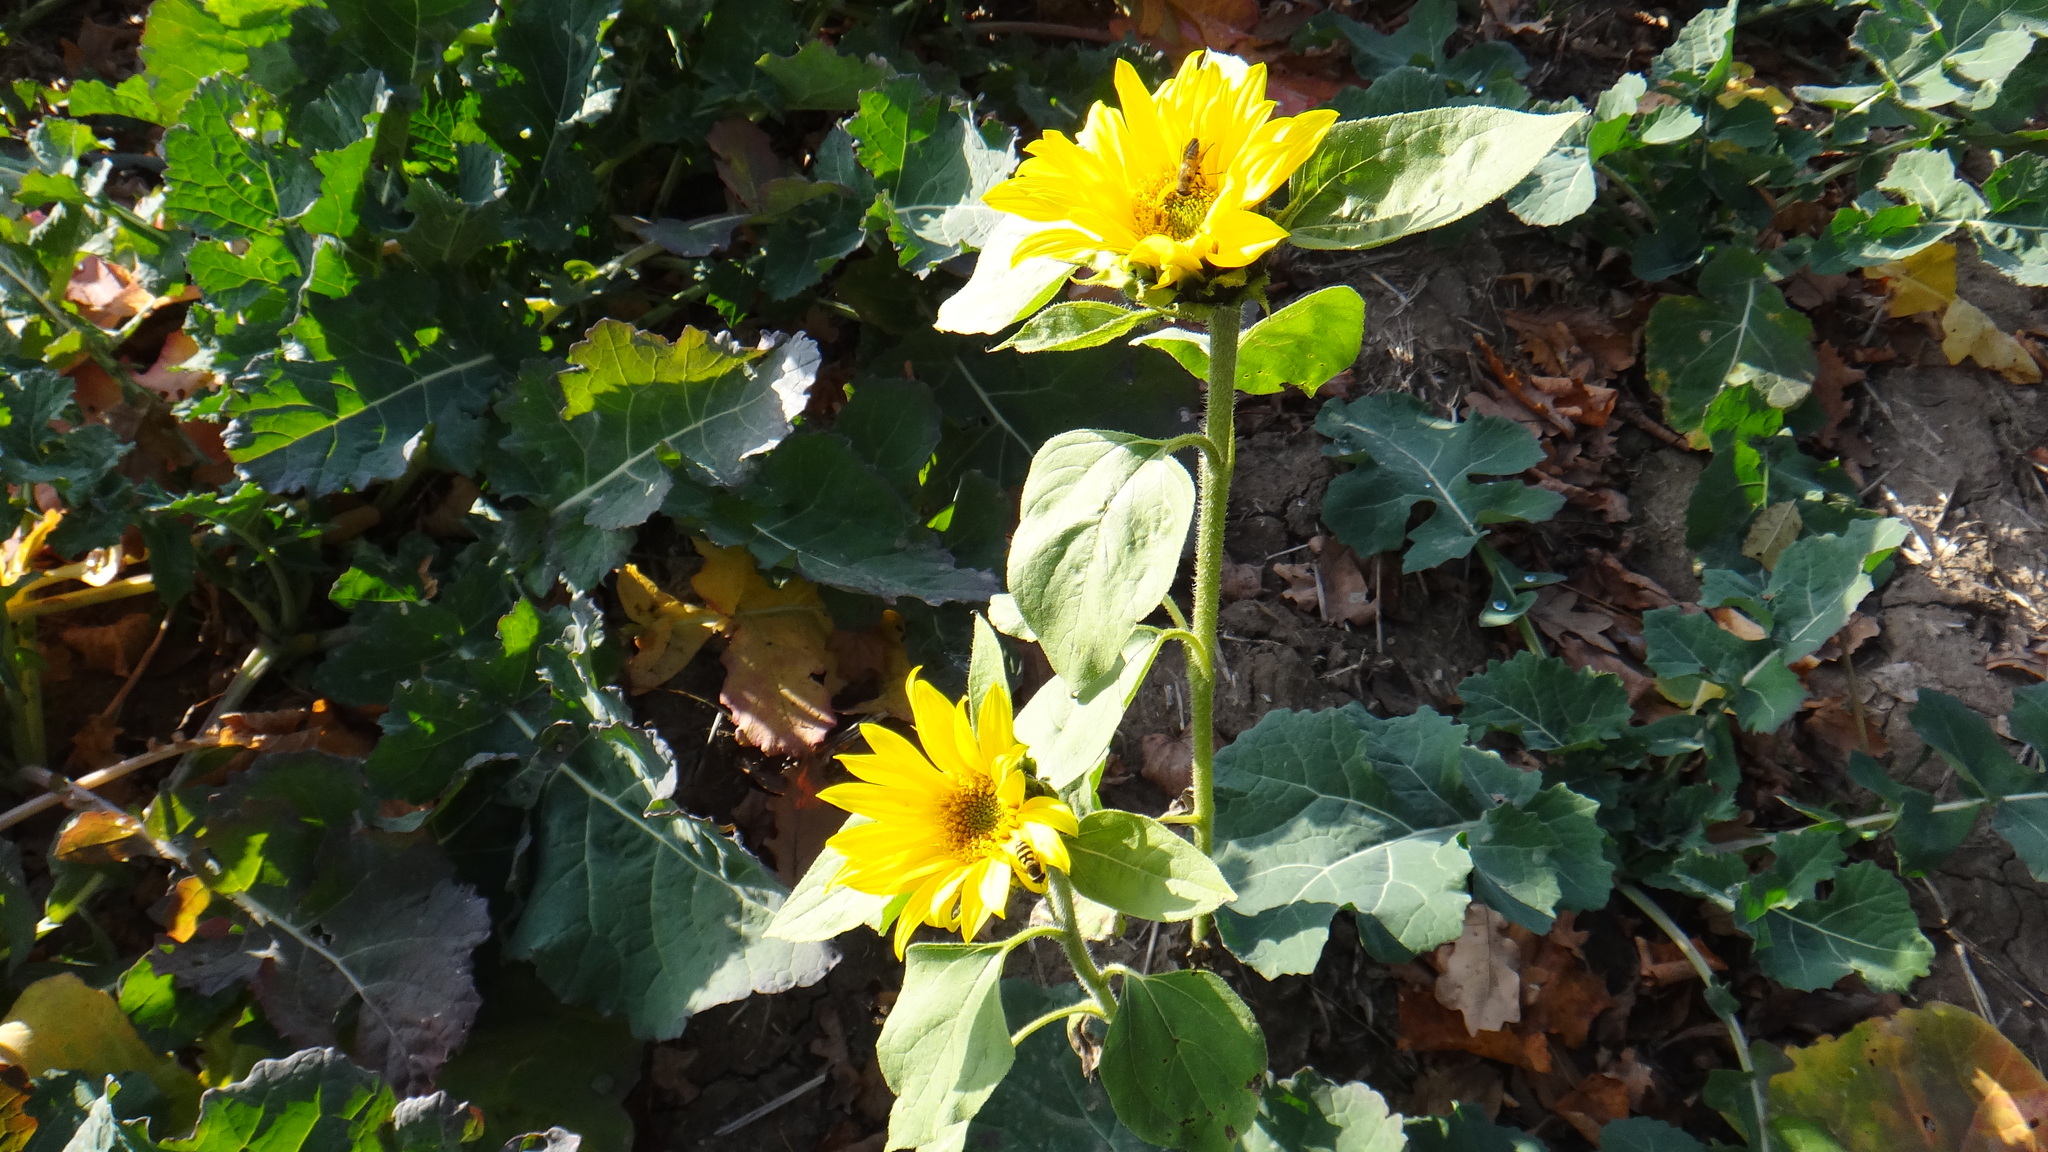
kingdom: Plantae
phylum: Tracheophyta
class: Magnoliopsida
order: Asterales
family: Asteraceae
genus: Helianthus
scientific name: Helianthus annuus
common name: Sunflower
